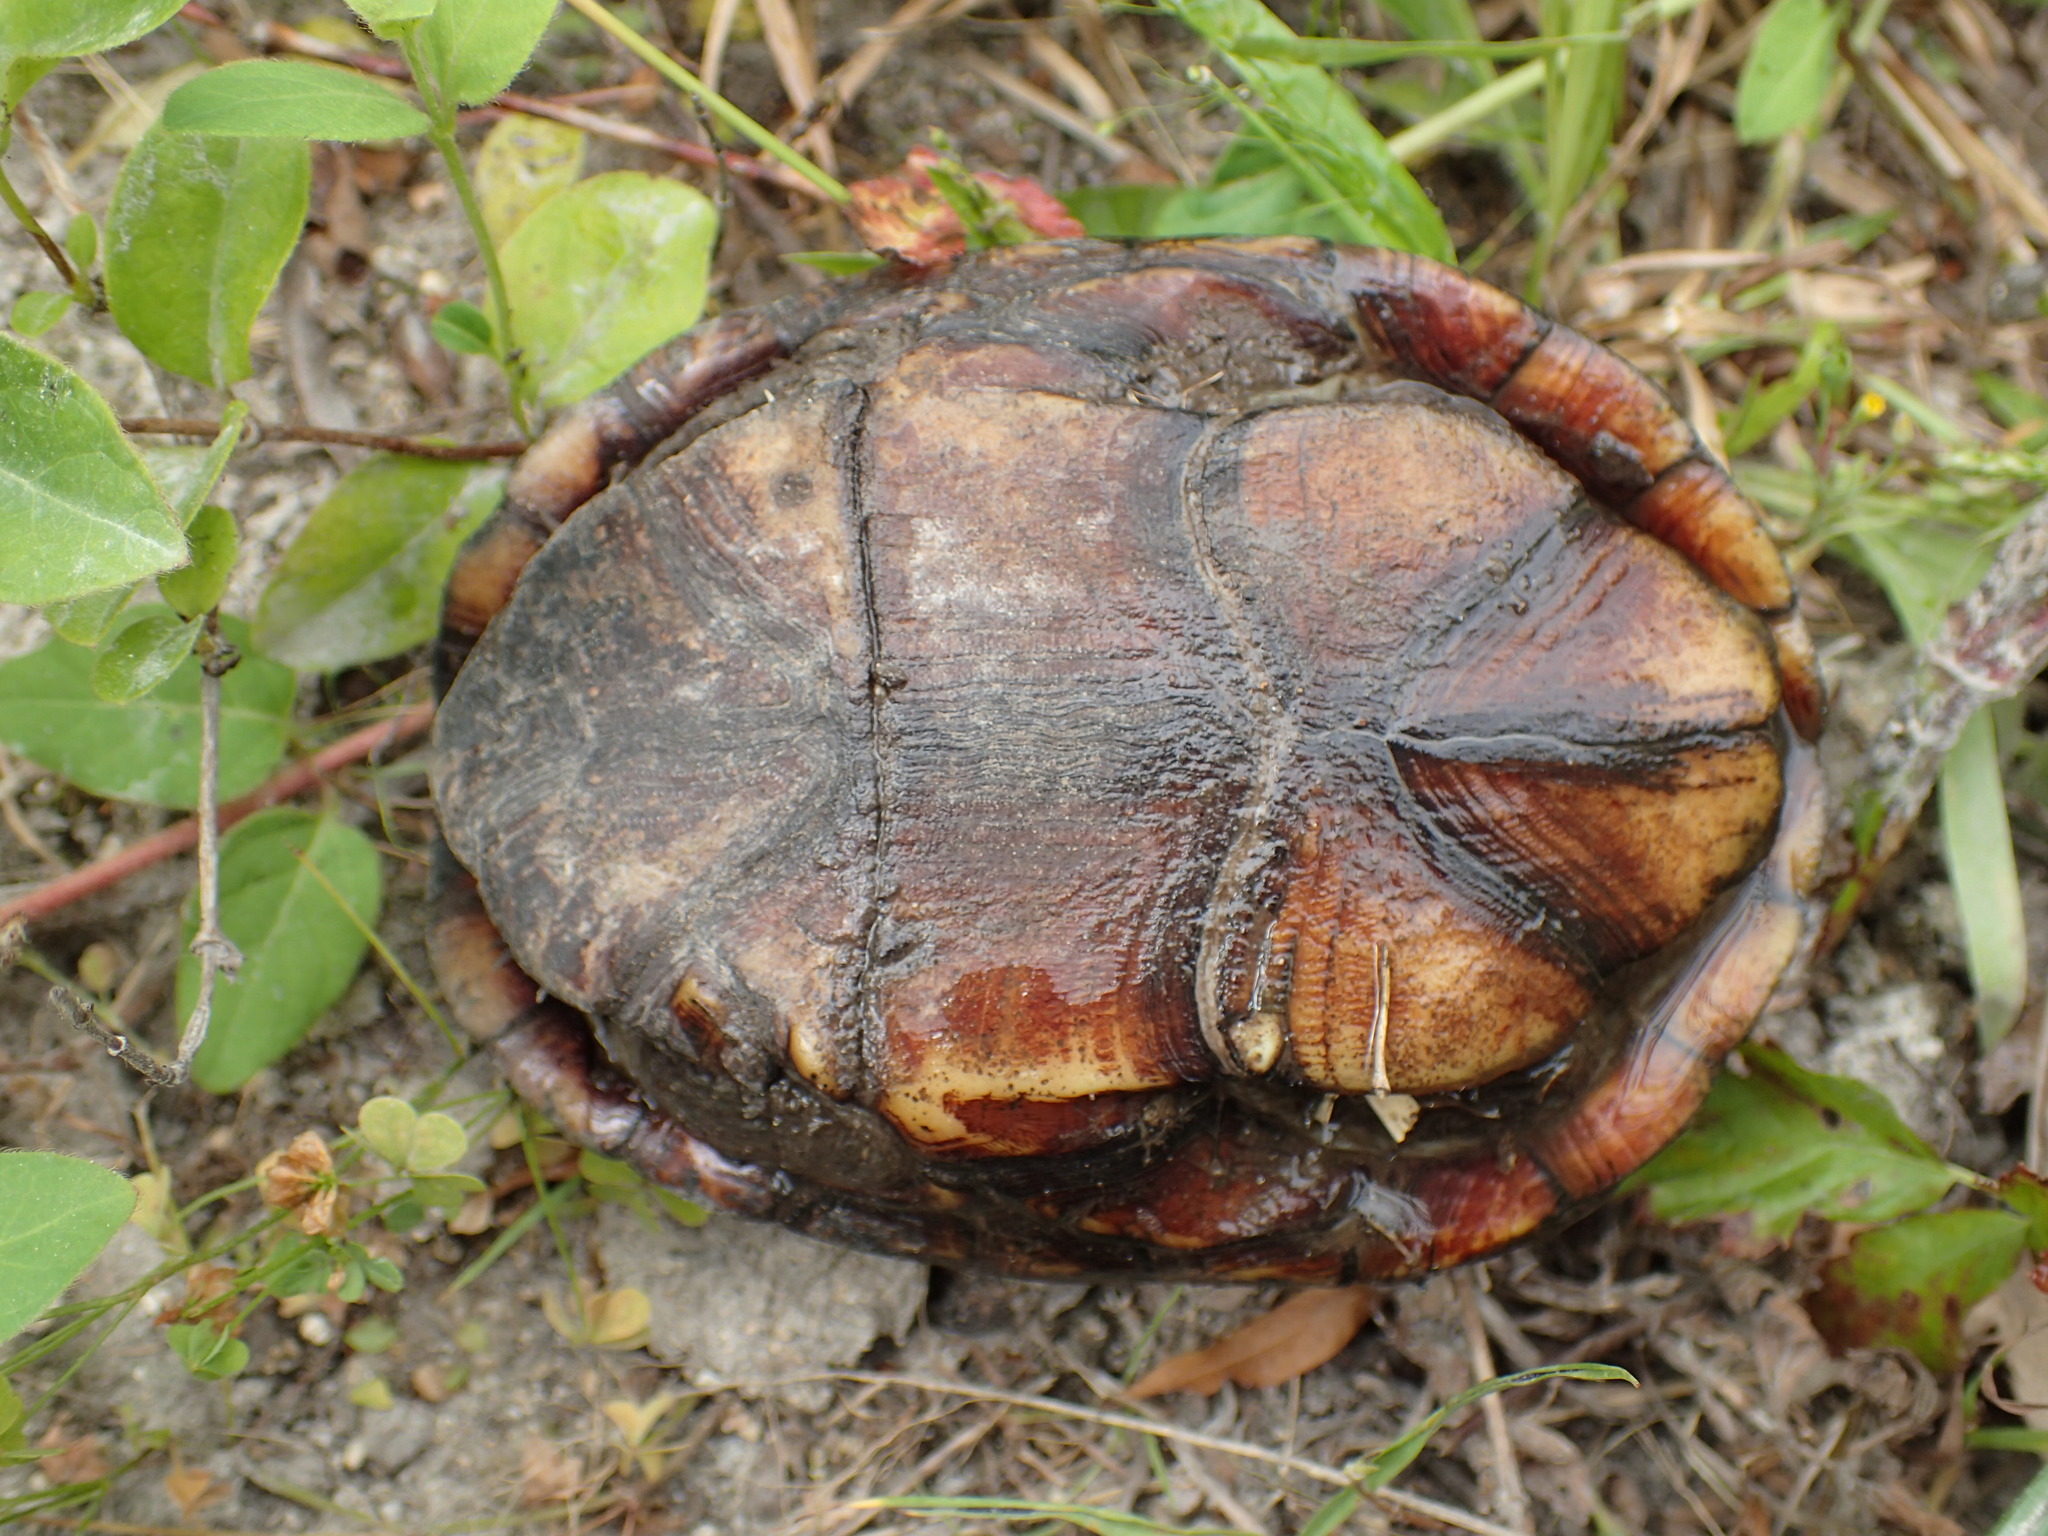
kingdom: Animalia
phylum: Chordata
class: Testudines
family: Kinosternidae
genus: Kinosternon
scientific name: Kinosternon subrubrum
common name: Eastern mud turtle
